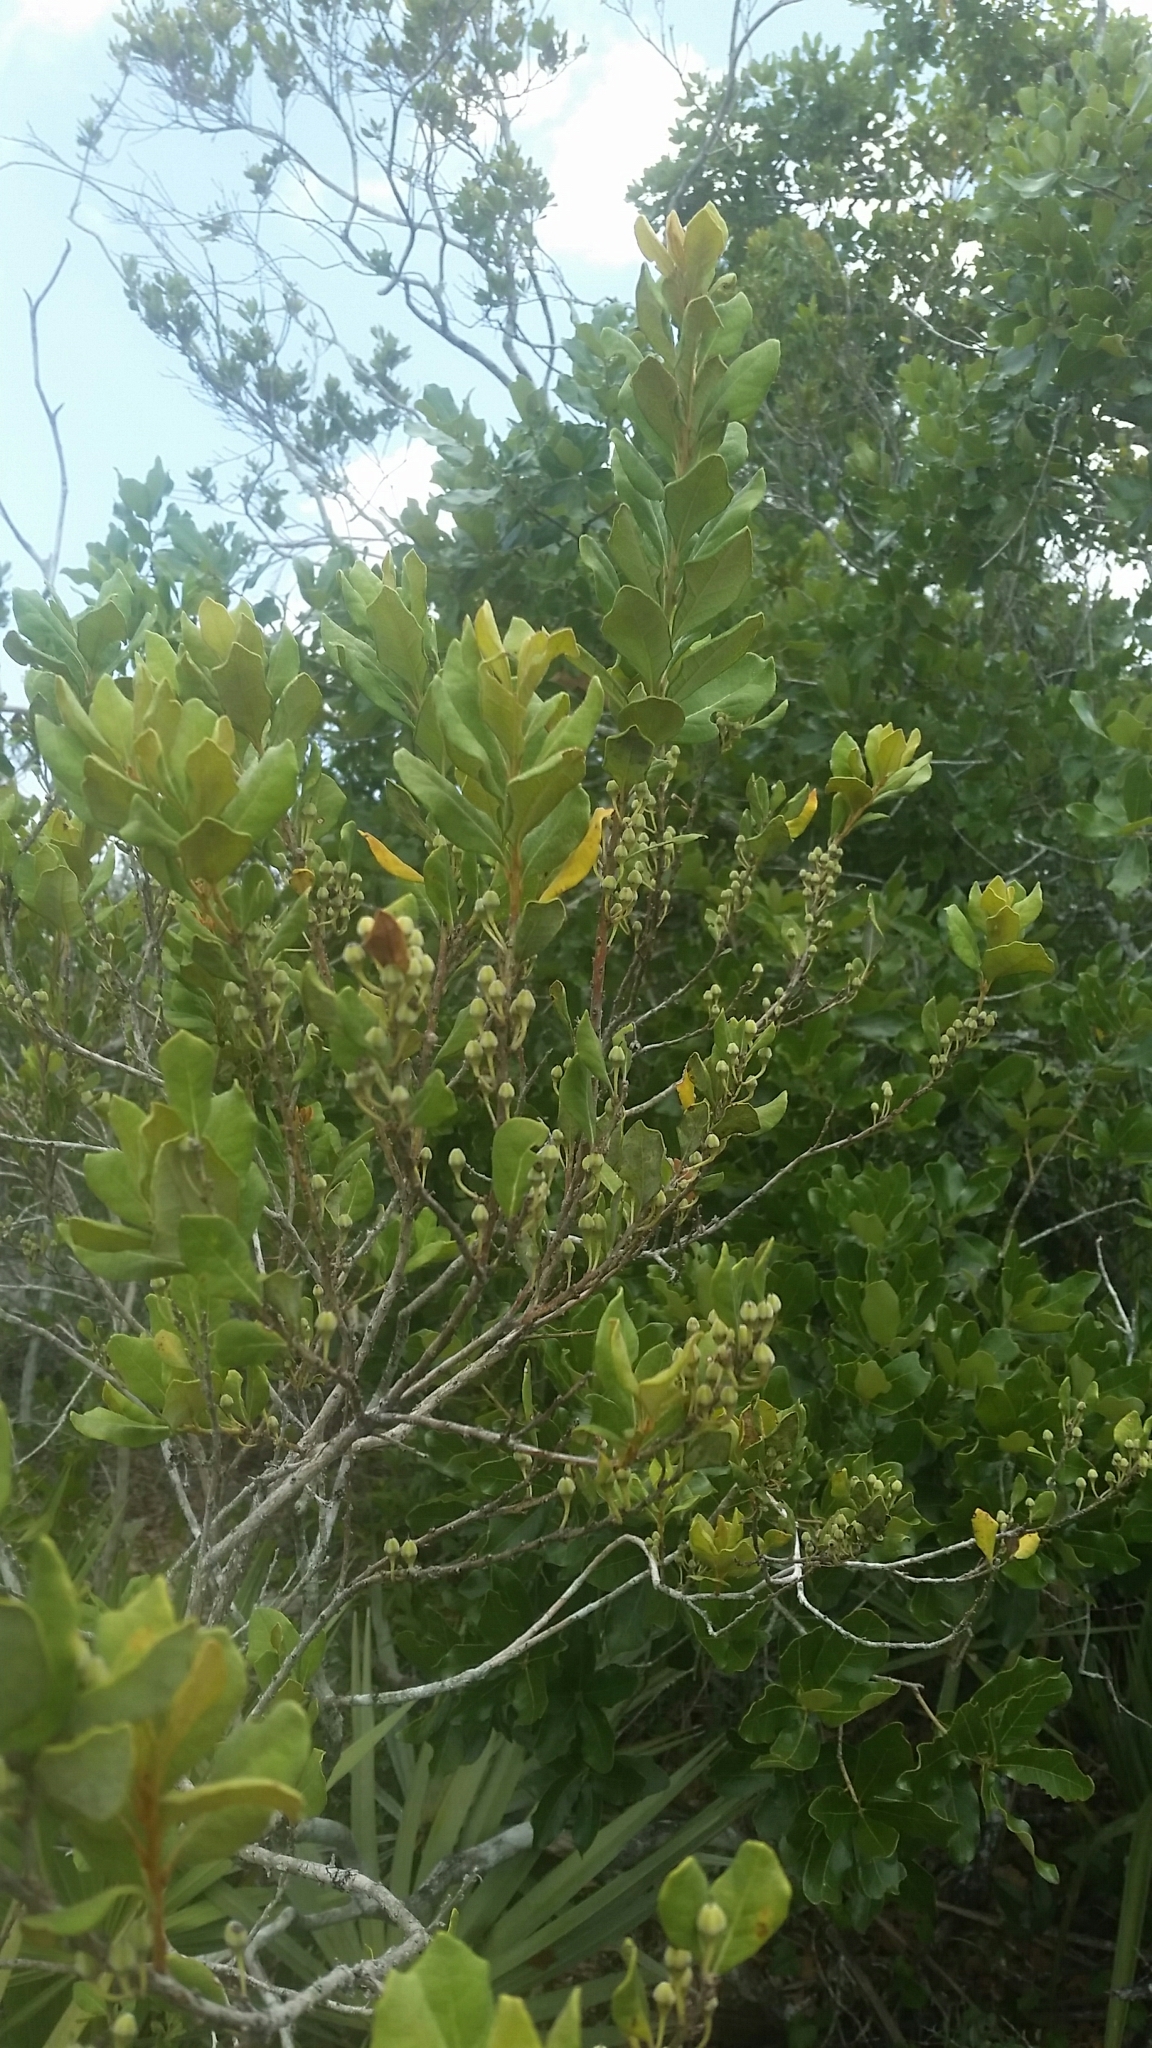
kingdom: Plantae
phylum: Tracheophyta
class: Magnoliopsida
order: Ericales
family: Ericaceae
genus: Lyonia
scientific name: Lyonia ferruginea
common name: Rusty lyonia
